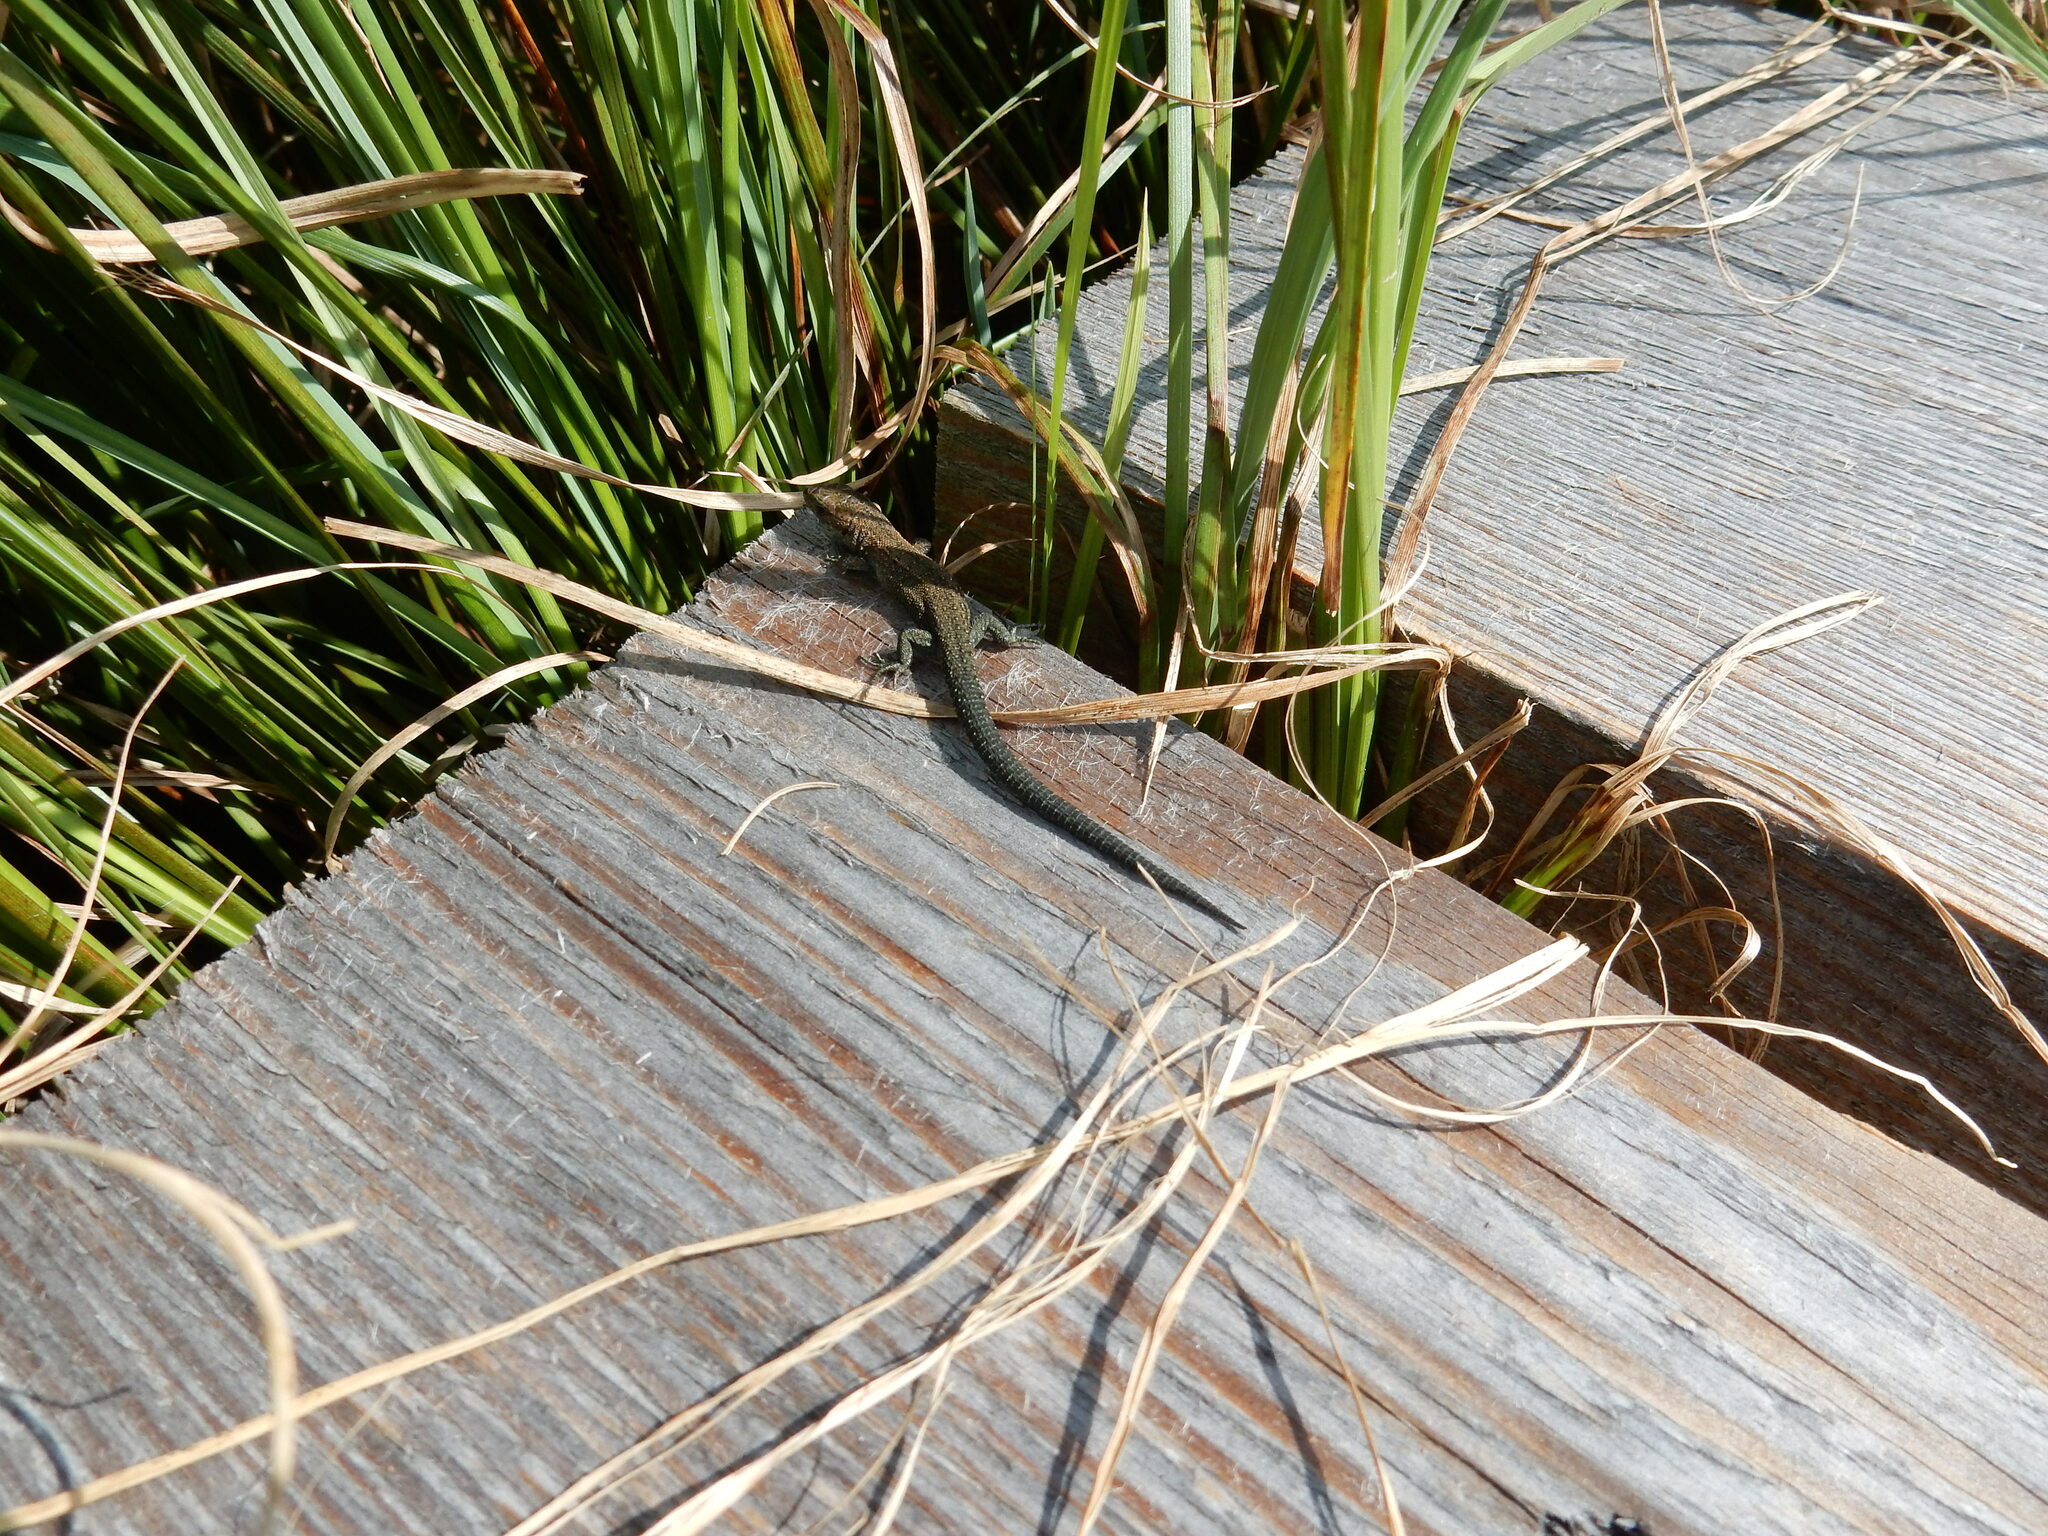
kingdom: Animalia
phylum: Chordata
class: Squamata
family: Lacertidae
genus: Zootoca
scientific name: Zootoca vivipara
